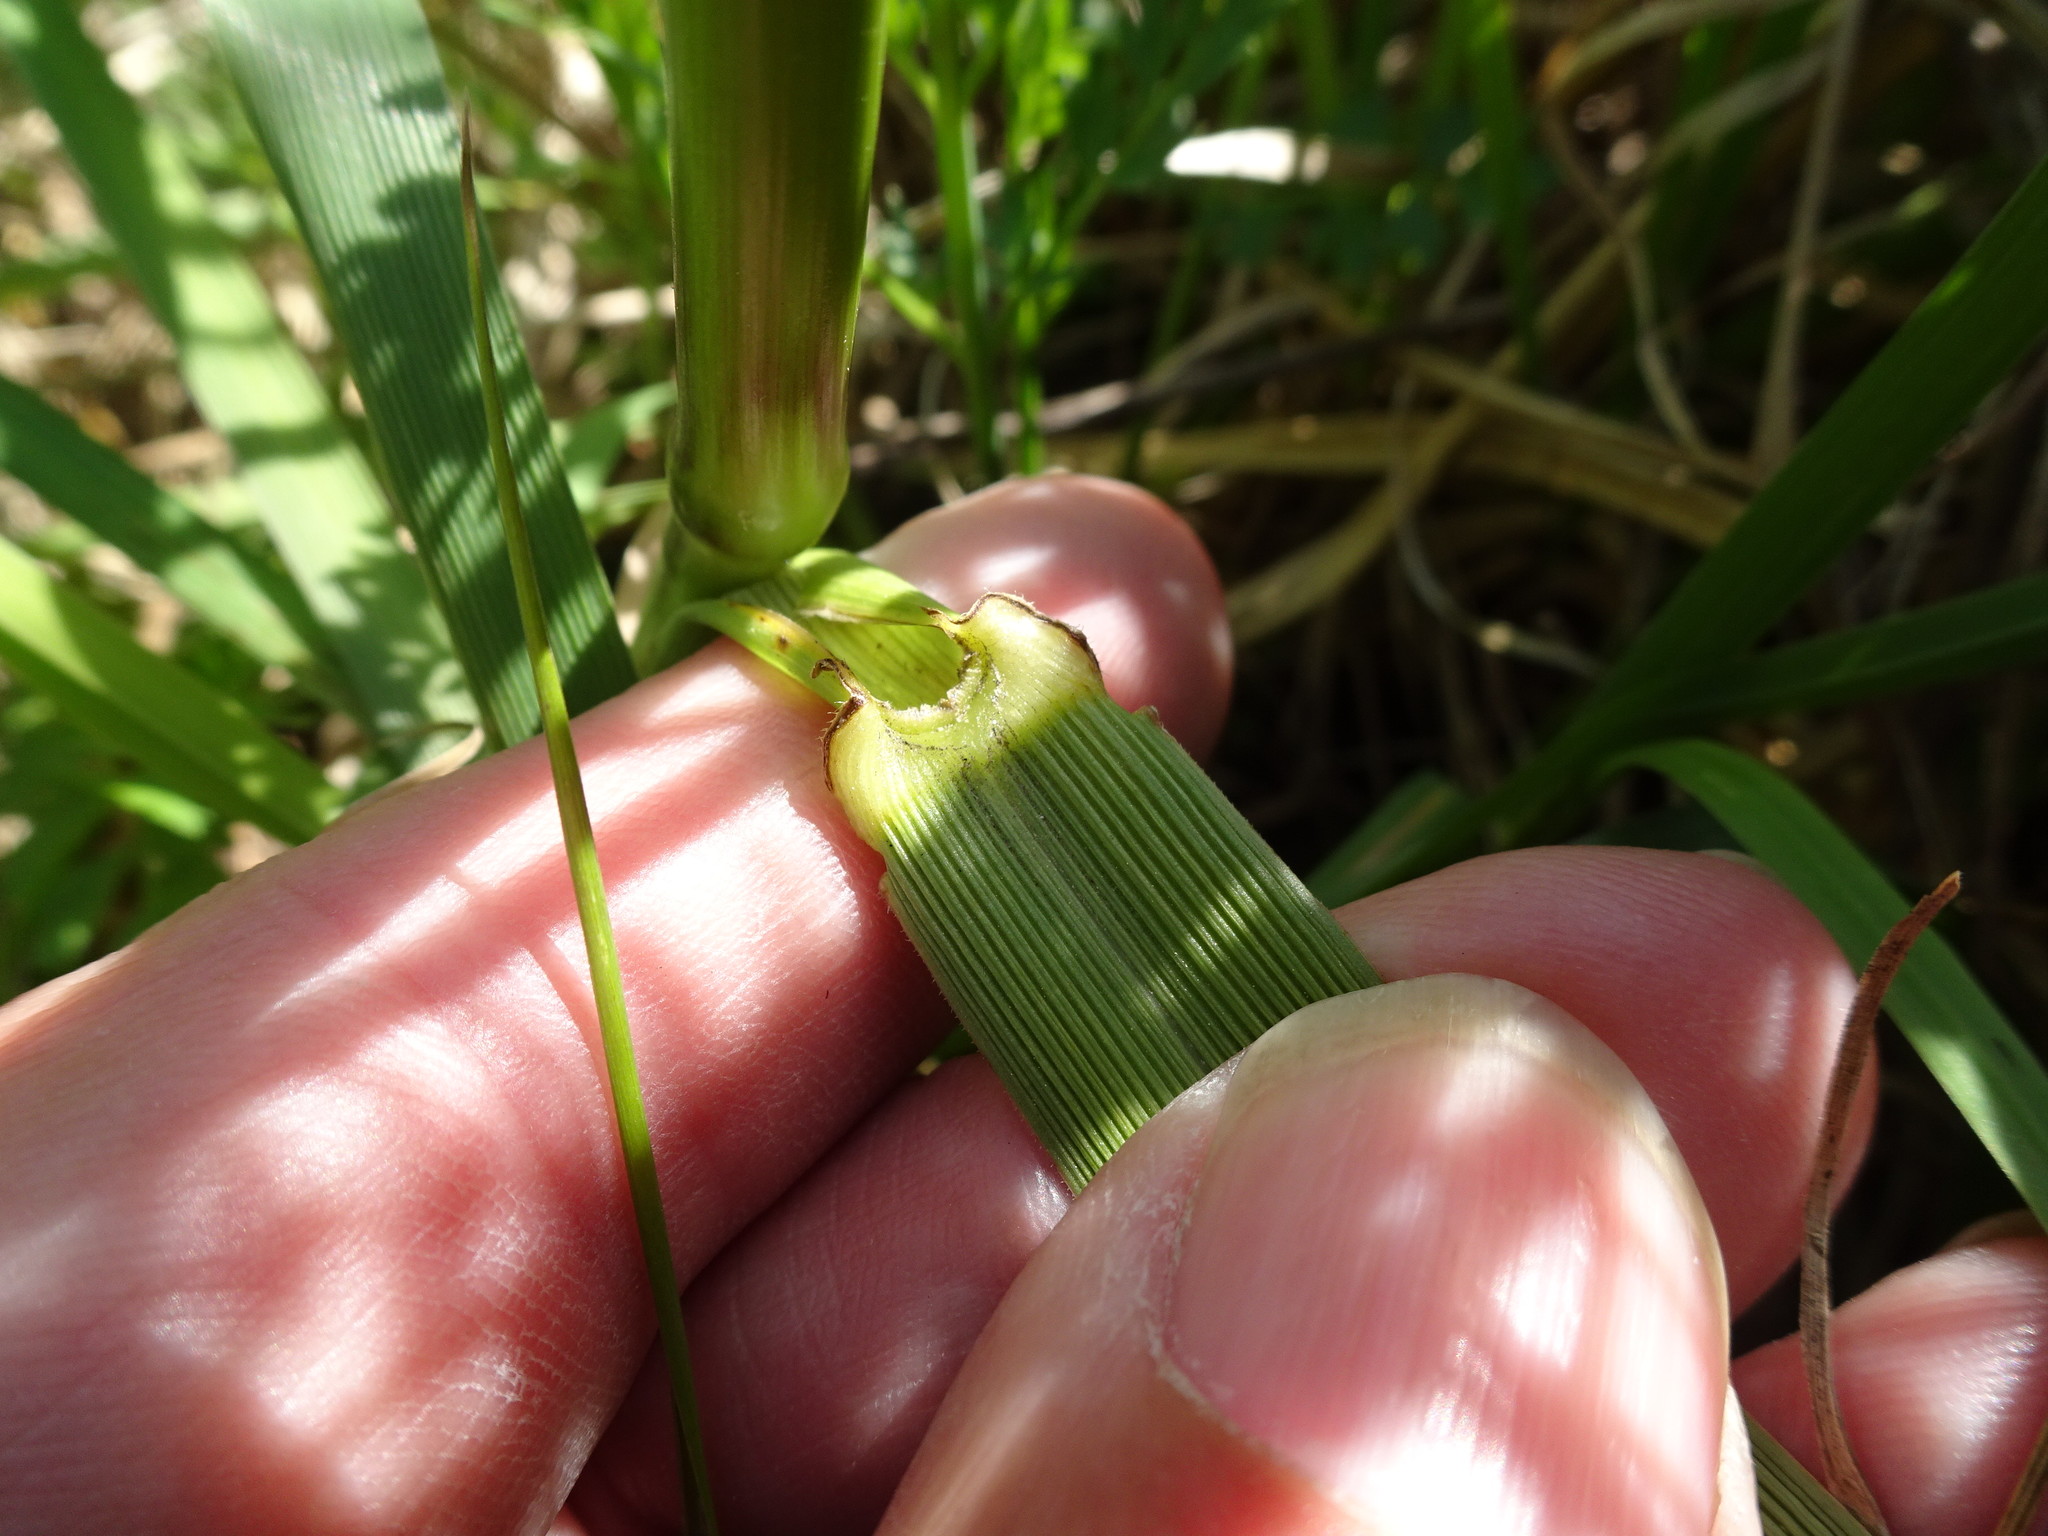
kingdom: Plantae
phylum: Tracheophyta
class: Liliopsida
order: Poales
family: Poaceae
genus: Lolium
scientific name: Lolium arundinaceum
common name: Reed fescue
